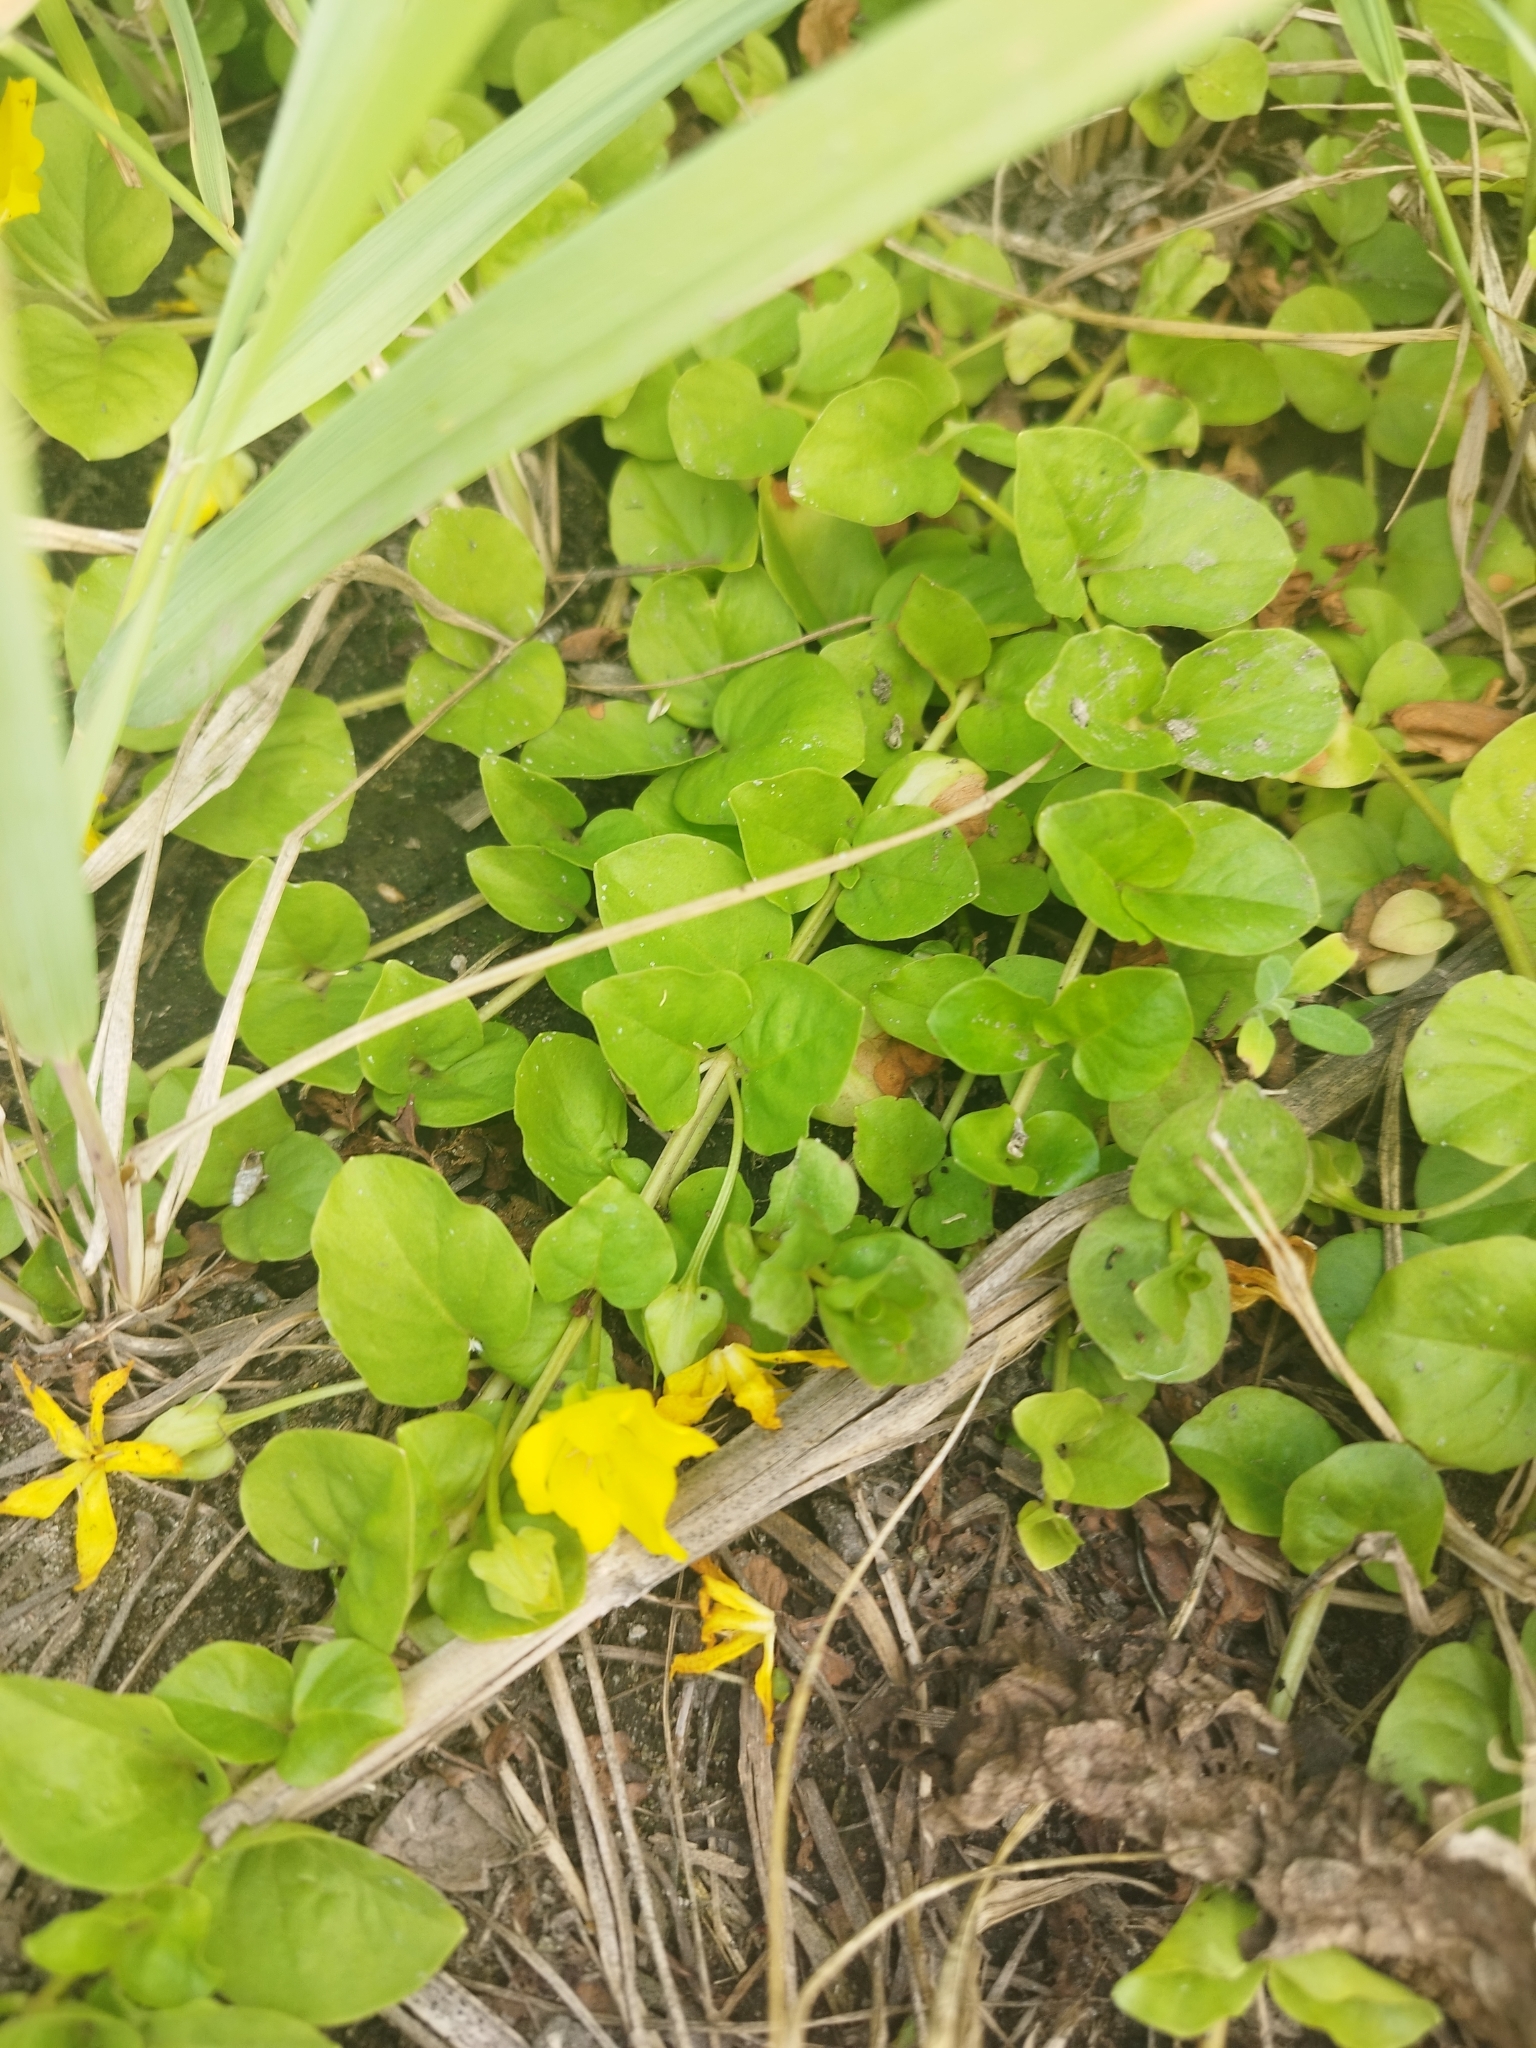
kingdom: Plantae
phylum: Tracheophyta
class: Magnoliopsida
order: Ericales
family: Primulaceae
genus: Lysimachia
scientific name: Lysimachia nummularia
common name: Moneywort
